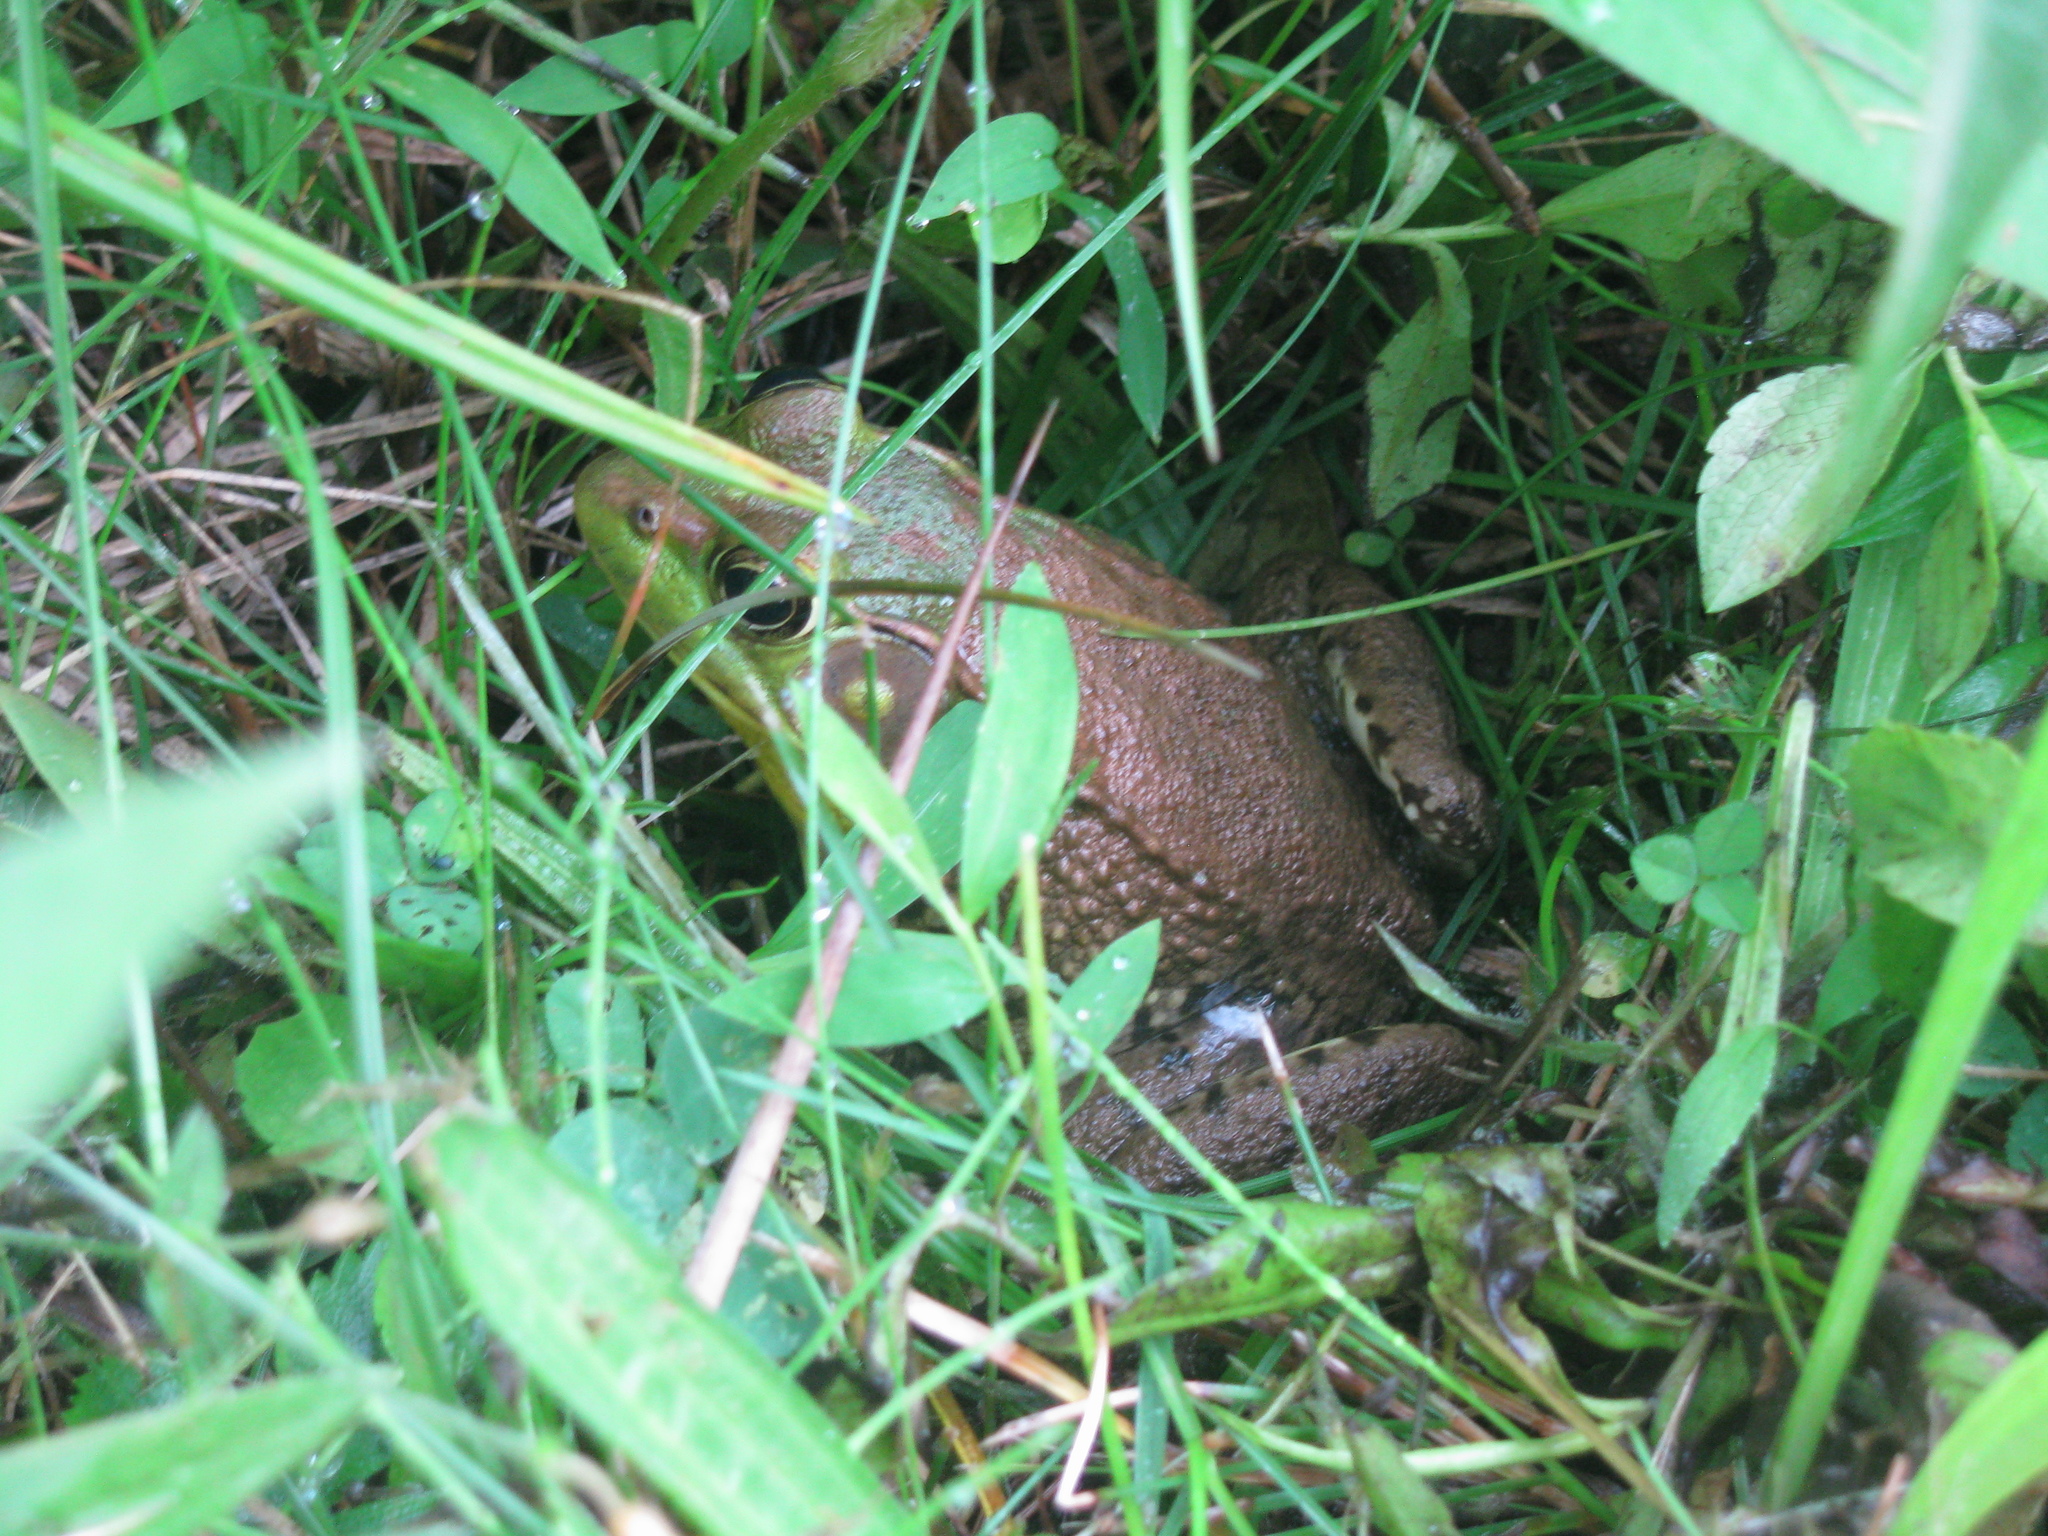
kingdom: Animalia
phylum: Chordata
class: Amphibia
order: Anura
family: Ranidae
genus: Lithobates
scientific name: Lithobates clamitans
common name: Green frog
